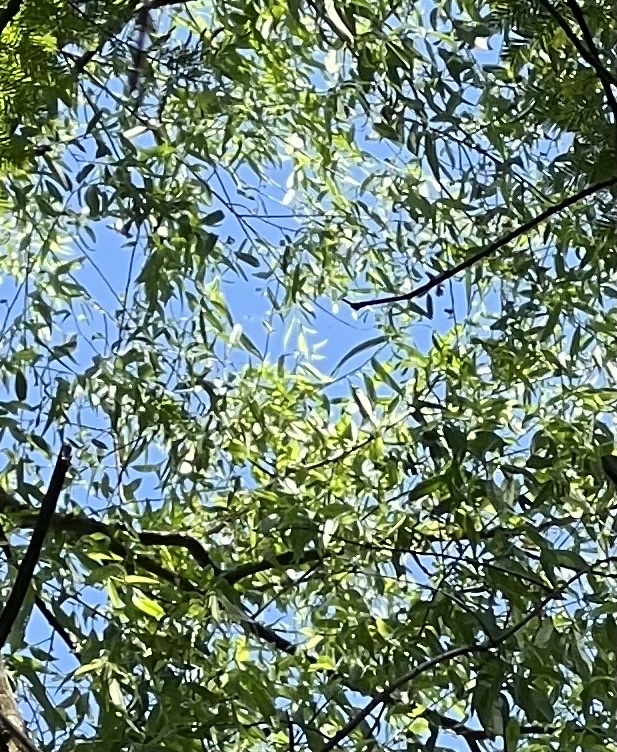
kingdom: Plantae
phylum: Tracheophyta
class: Magnoliopsida
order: Malpighiales
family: Salicaceae
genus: Salix
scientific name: Salix nigra
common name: Black willow
